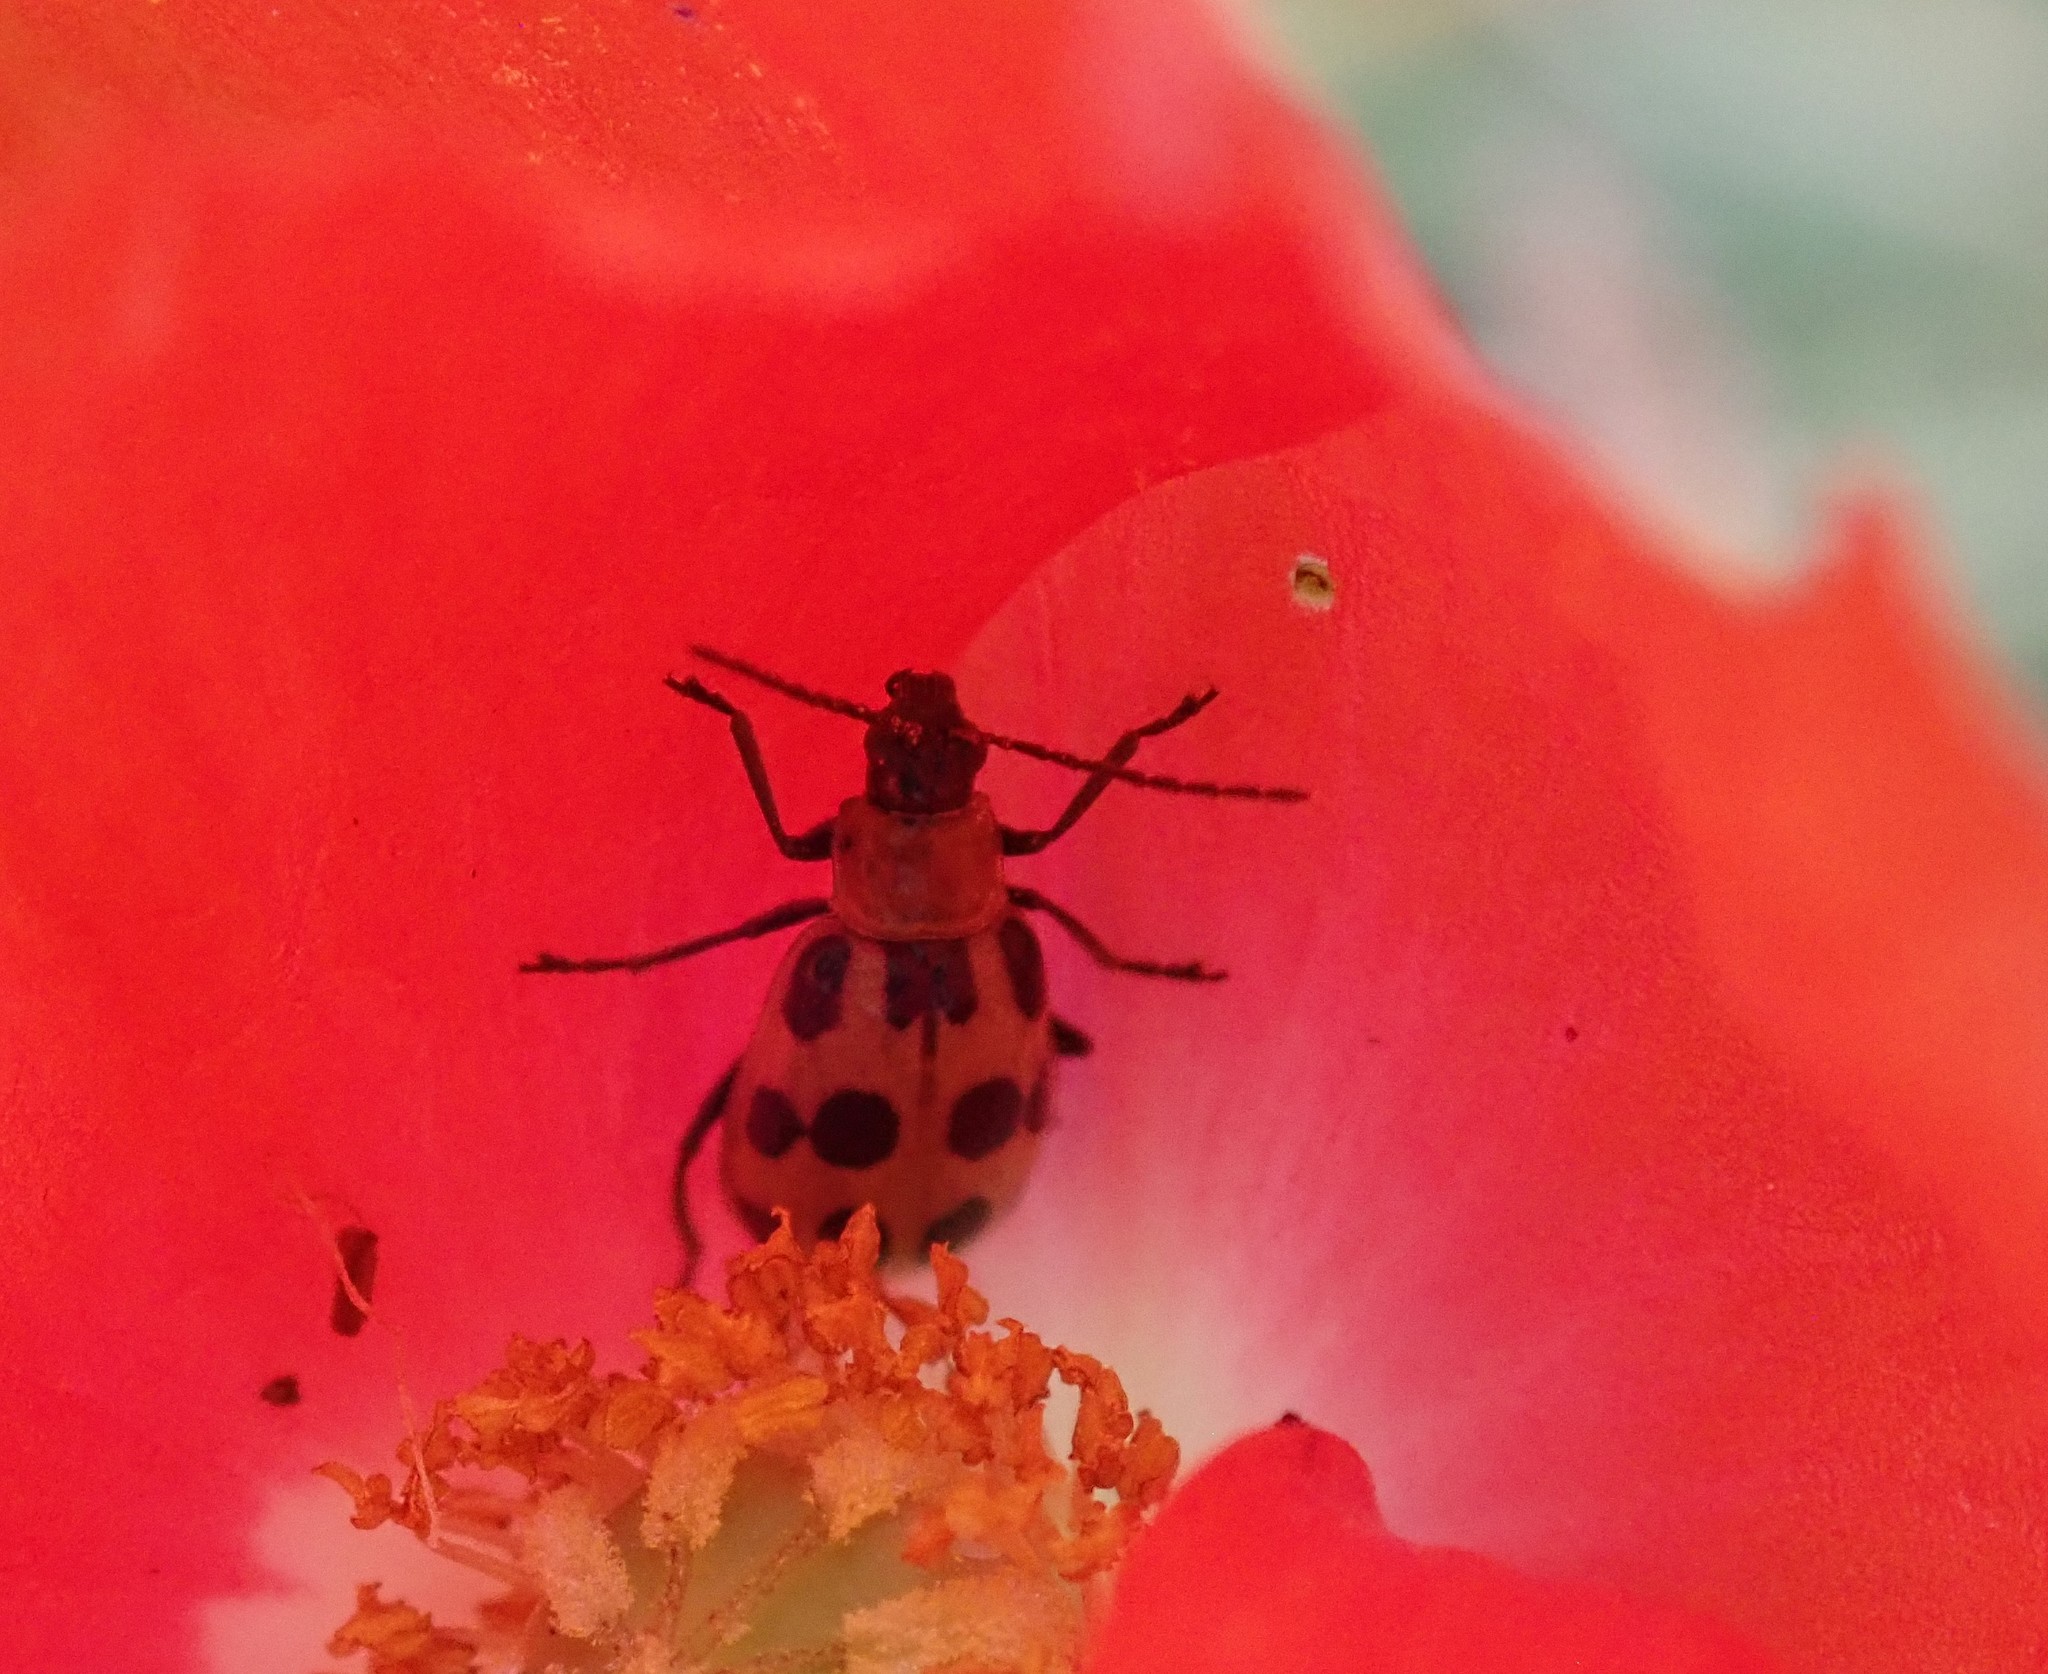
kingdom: Animalia
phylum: Arthropoda
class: Insecta
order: Coleoptera
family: Chrysomelidae
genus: Diabrotica
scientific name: Diabrotica undecimpunctata
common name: Spotted cucumber beetle
